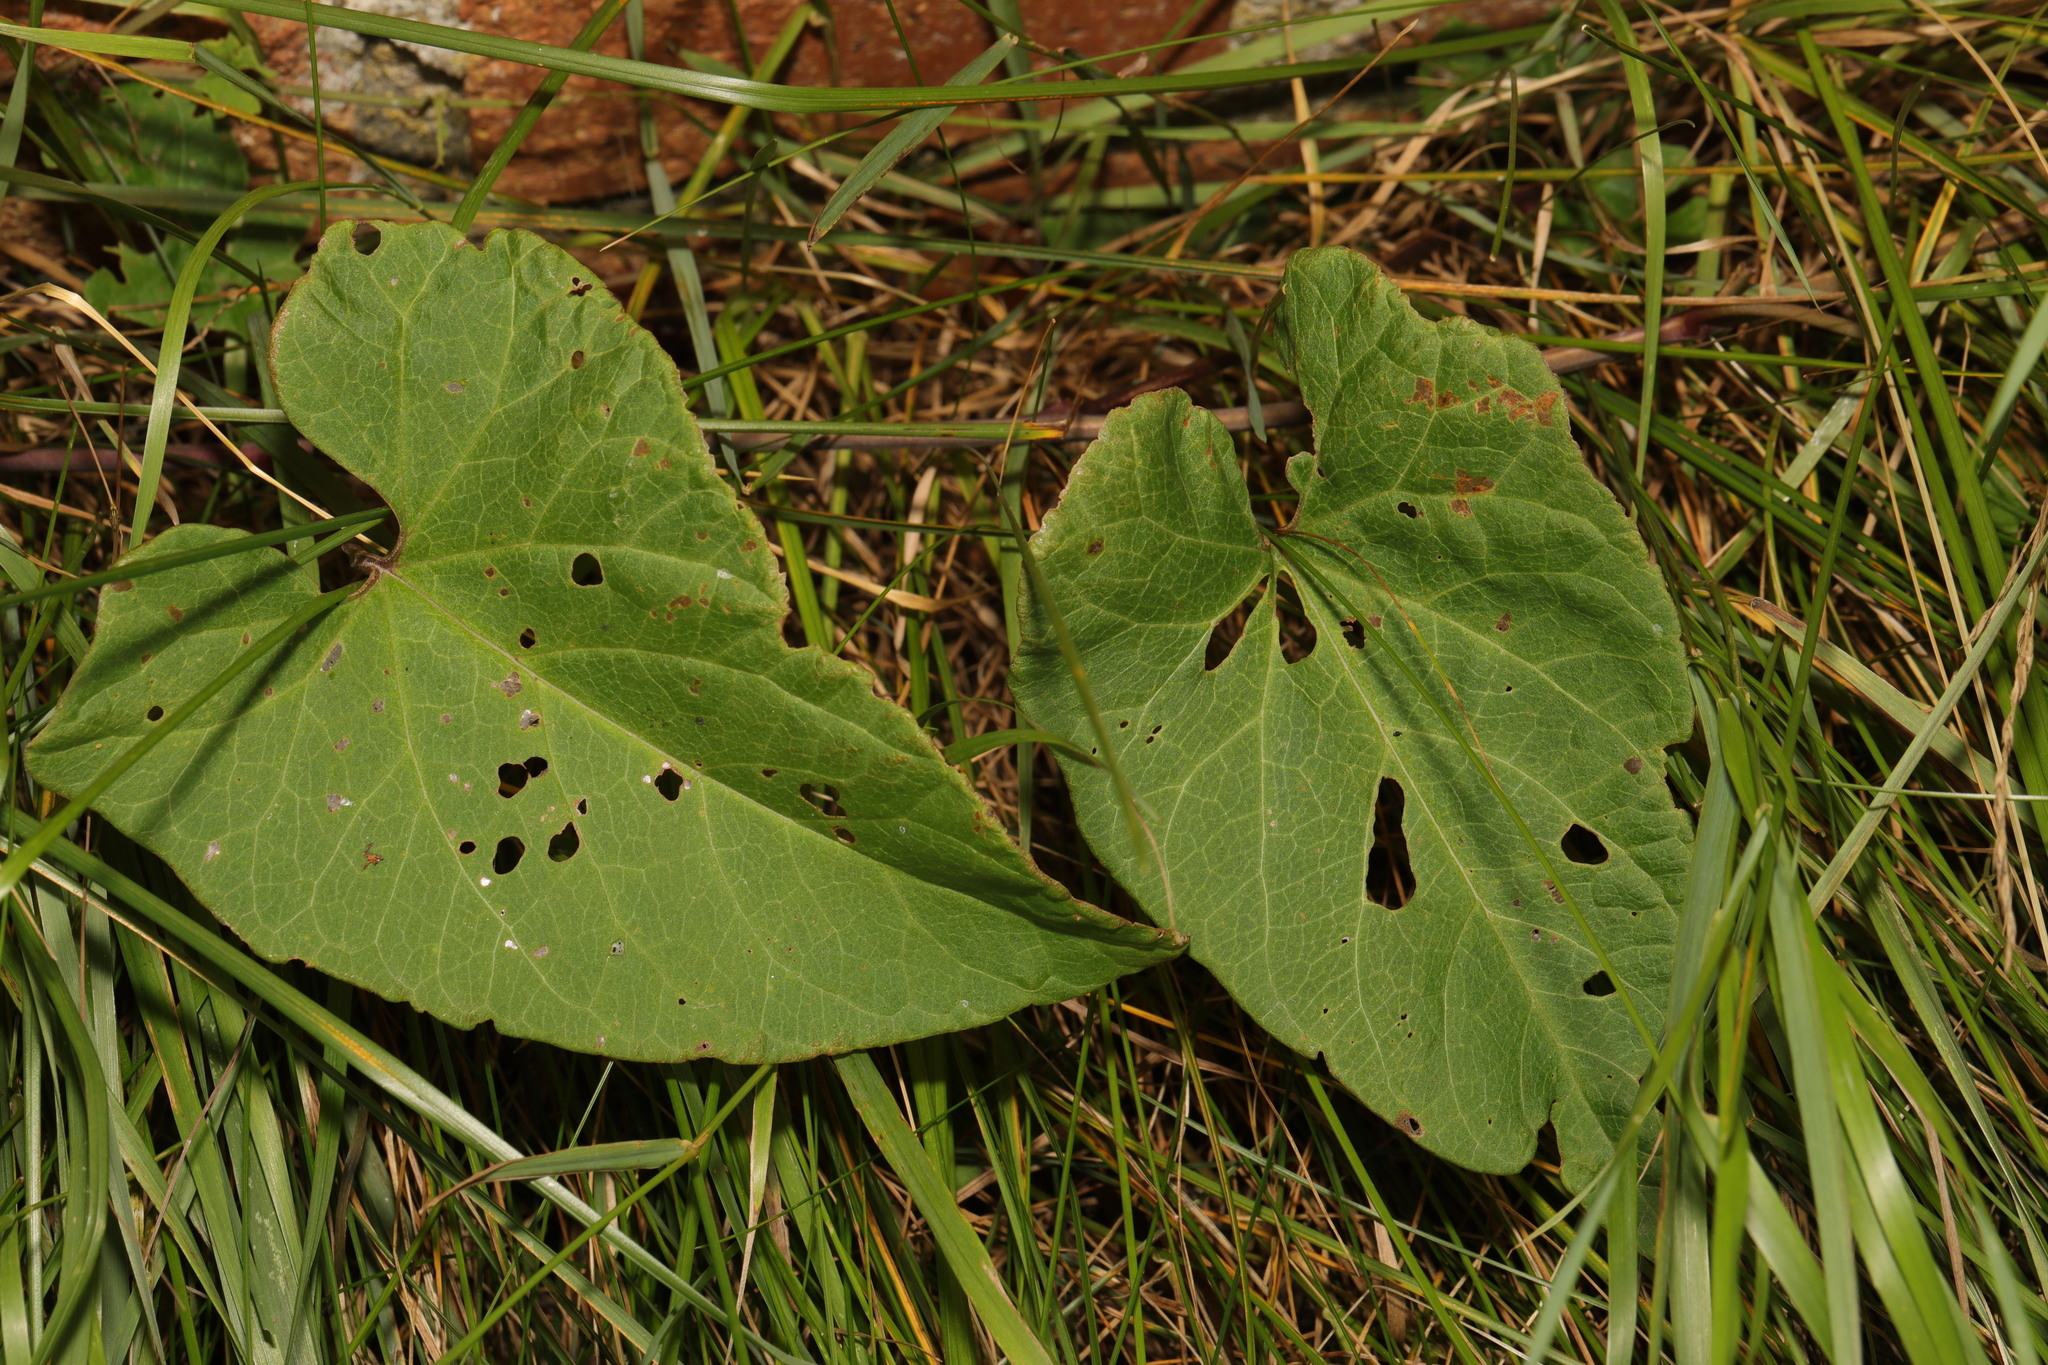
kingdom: Plantae
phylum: Tracheophyta
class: Magnoliopsida
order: Solanales
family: Convolvulaceae
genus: Calystegia
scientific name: Calystegia
